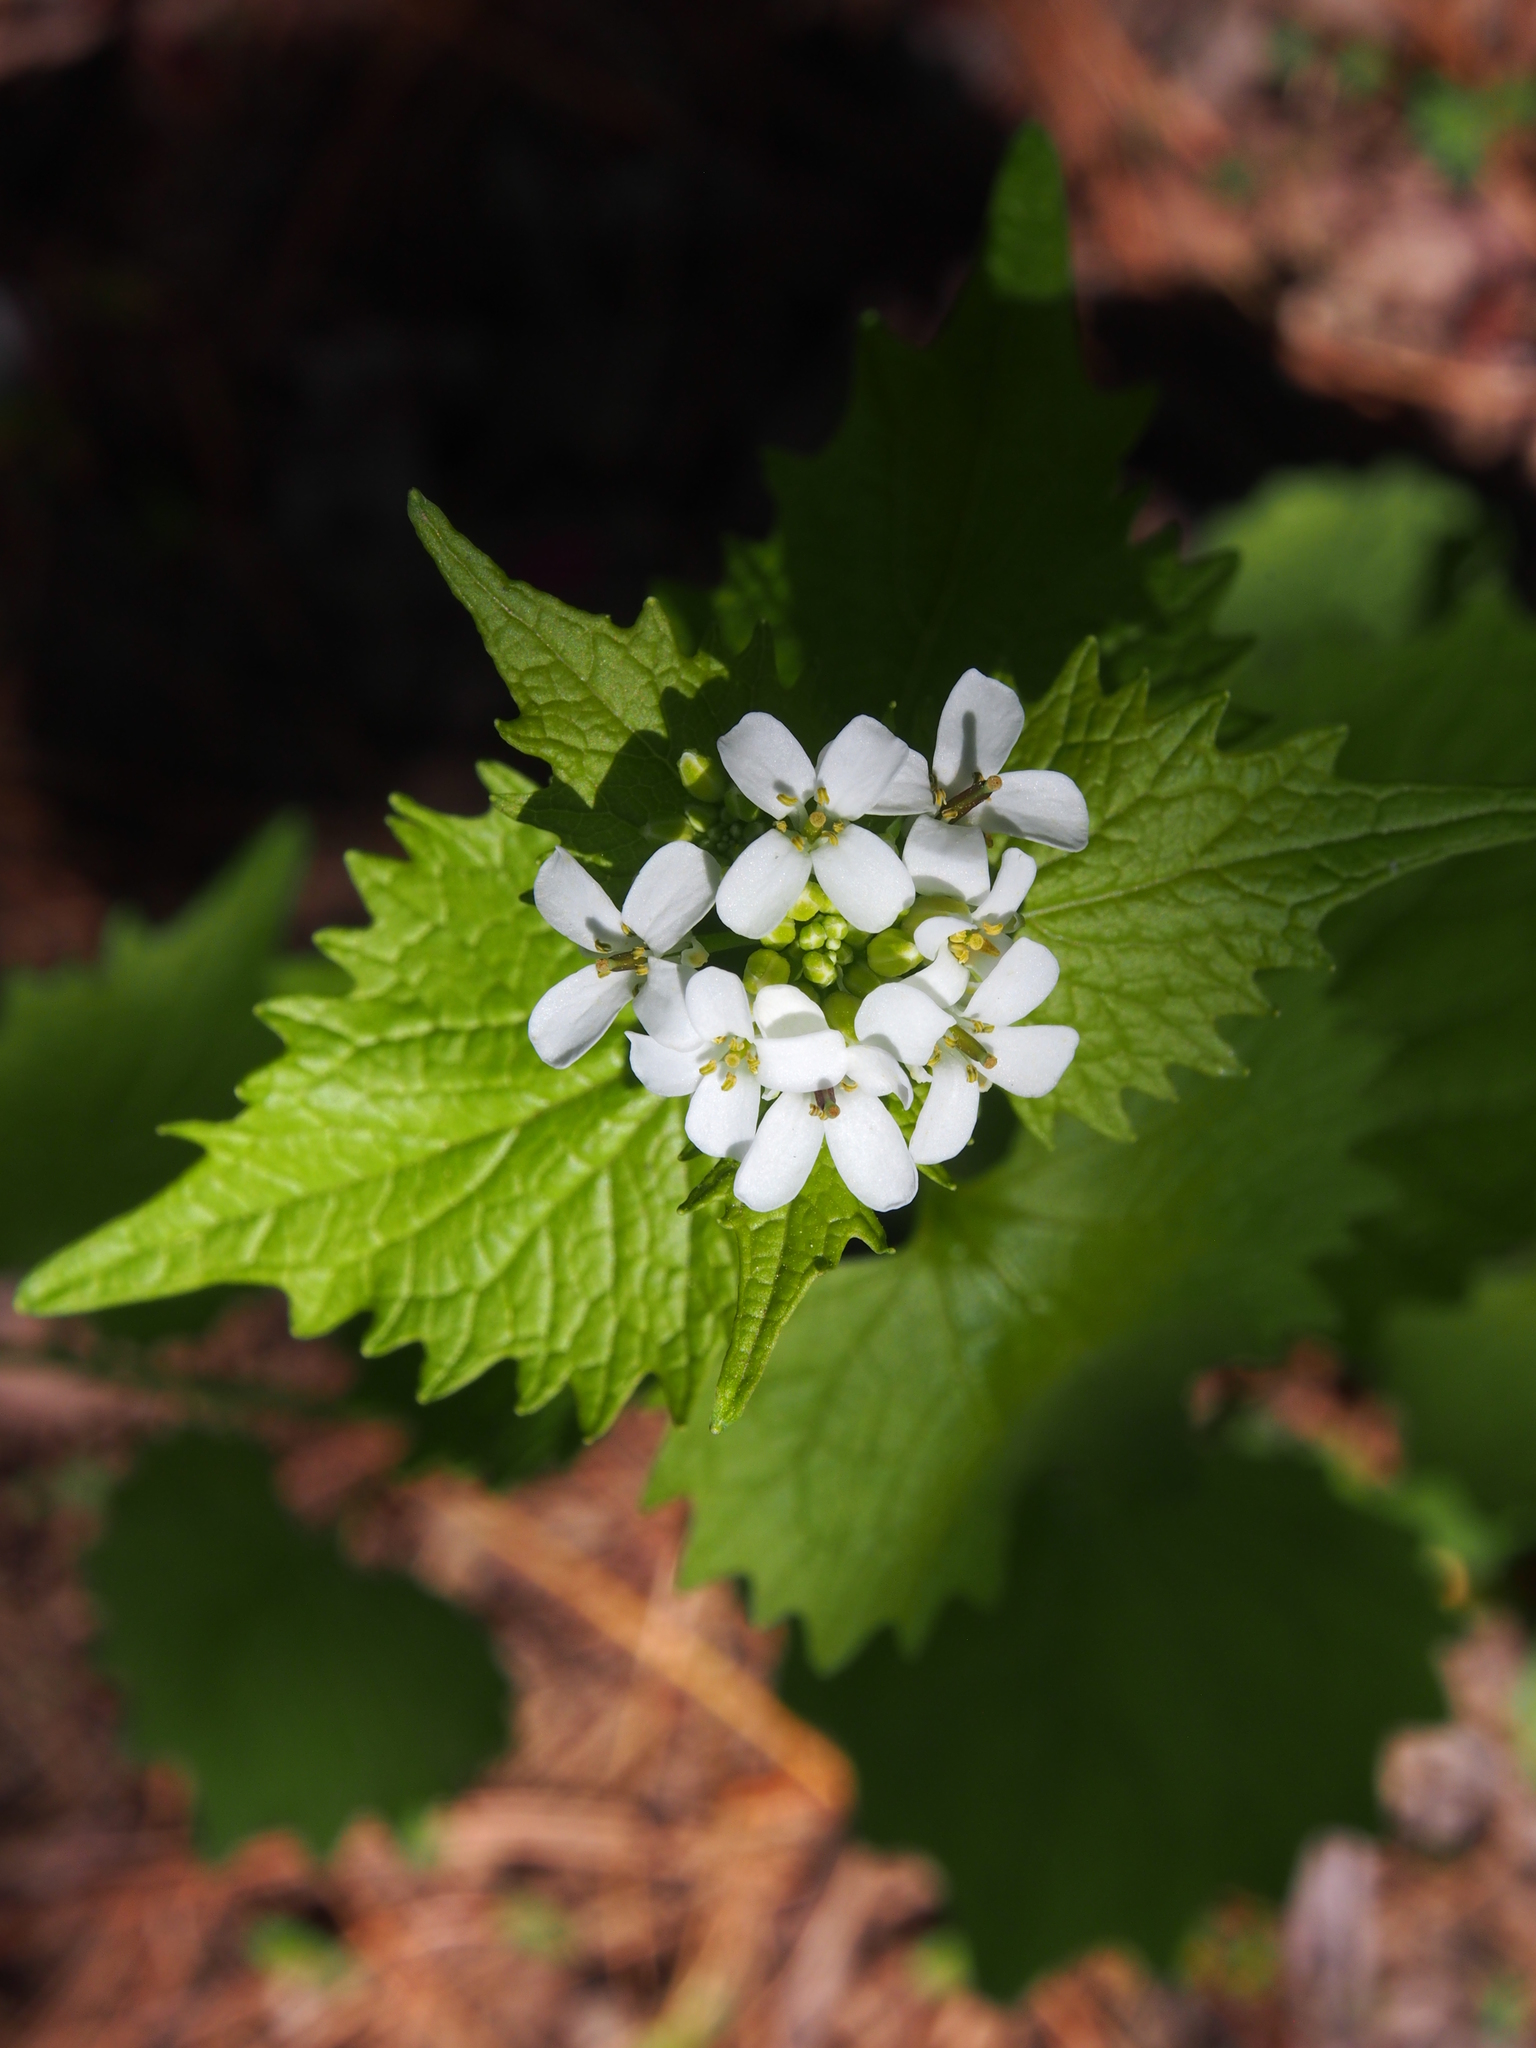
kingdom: Plantae
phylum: Tracheophyta
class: Magnoliopsida
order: Brassicales
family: Brassicaceae
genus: Alliaria
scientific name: Alliaria petiolata
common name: Garlic mustard
